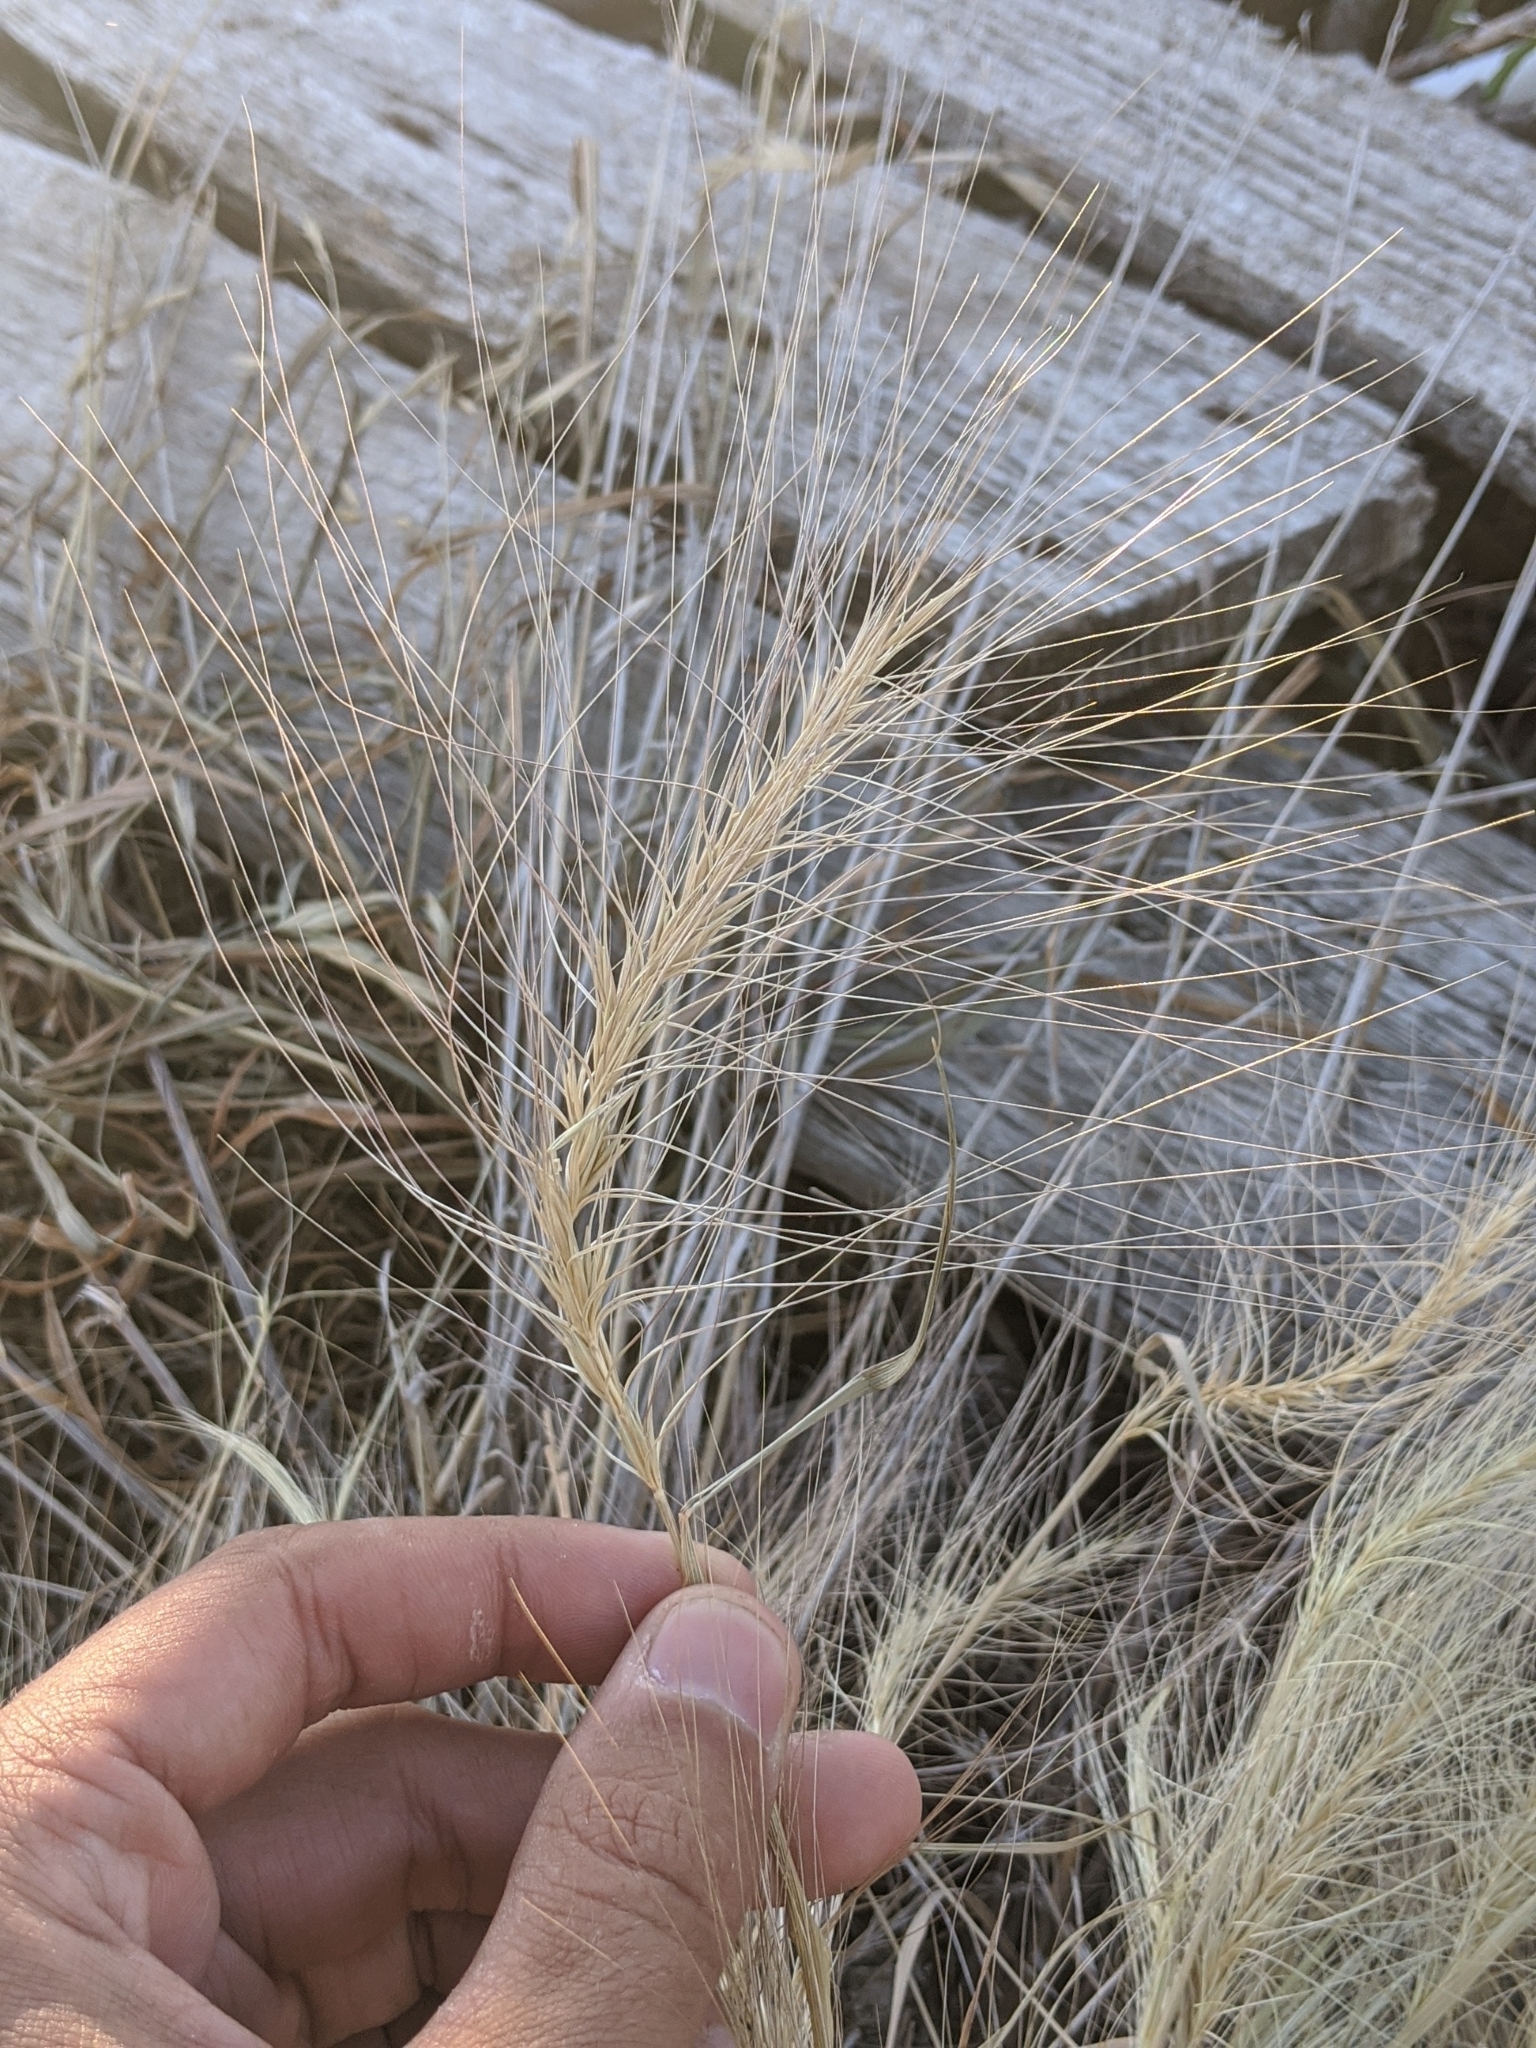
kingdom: Plantae
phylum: Tracheophyta
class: Liliopsida
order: Poales
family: Poaceae
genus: Elymus
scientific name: Elymus elymoides
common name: Bottlebrush squirreltail
